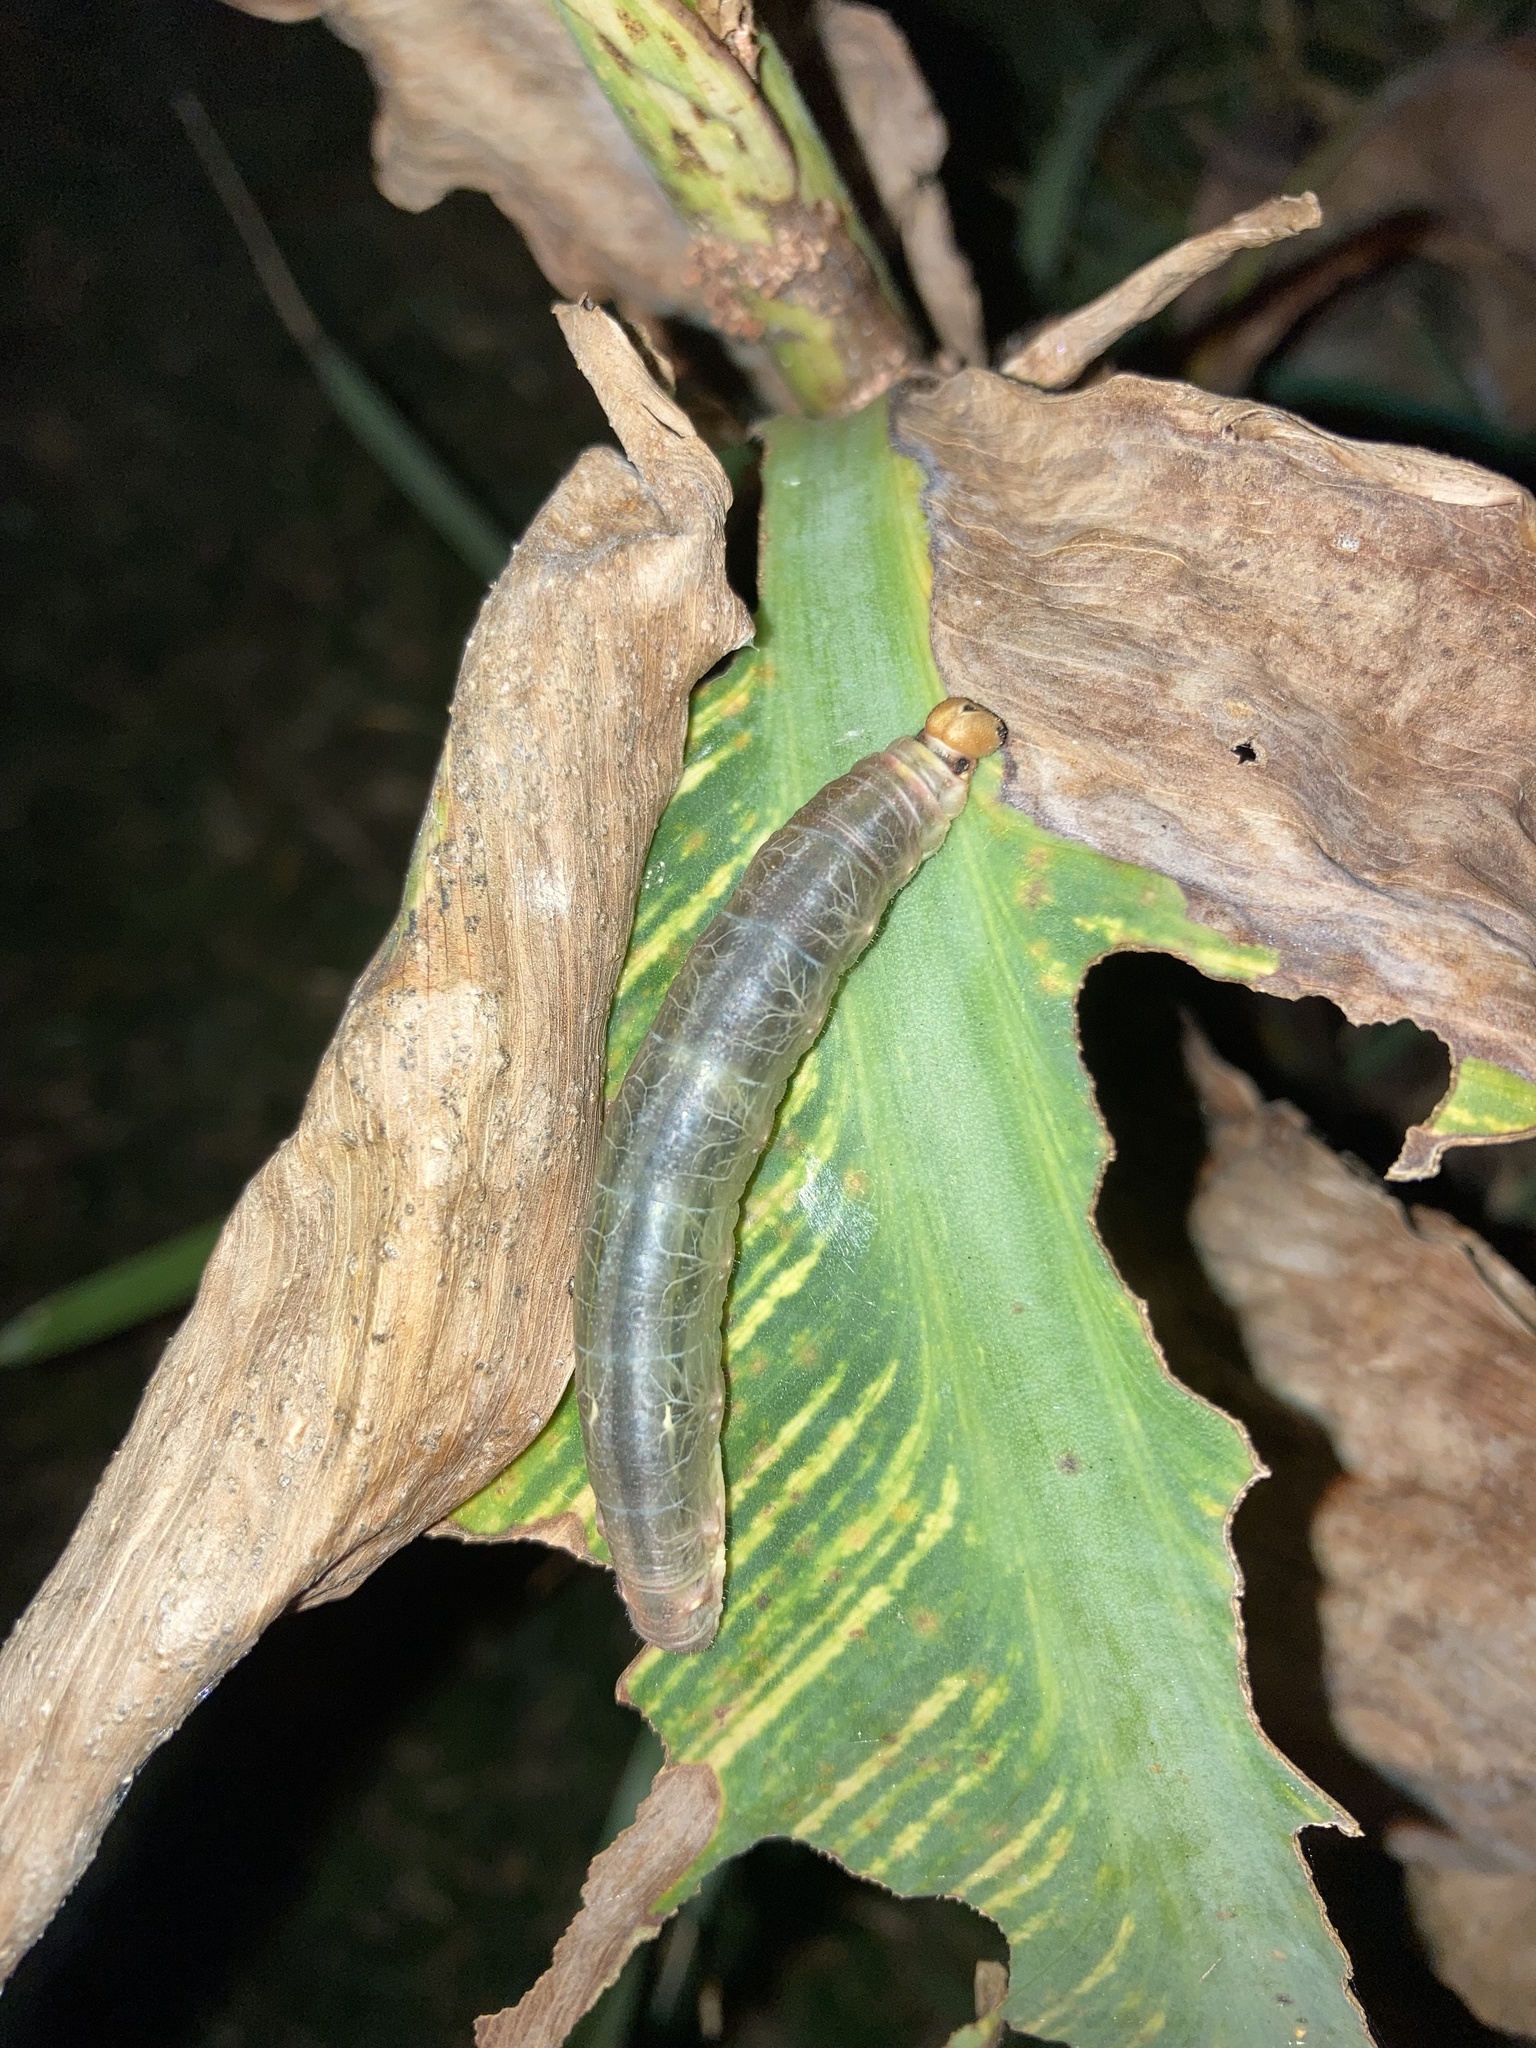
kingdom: Animalia
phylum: Arthropoda
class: Insecta
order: Lepidoptera
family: Hesperiidae
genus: Calpodes
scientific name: Calpodes ethlius
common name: Brazilian skipper
